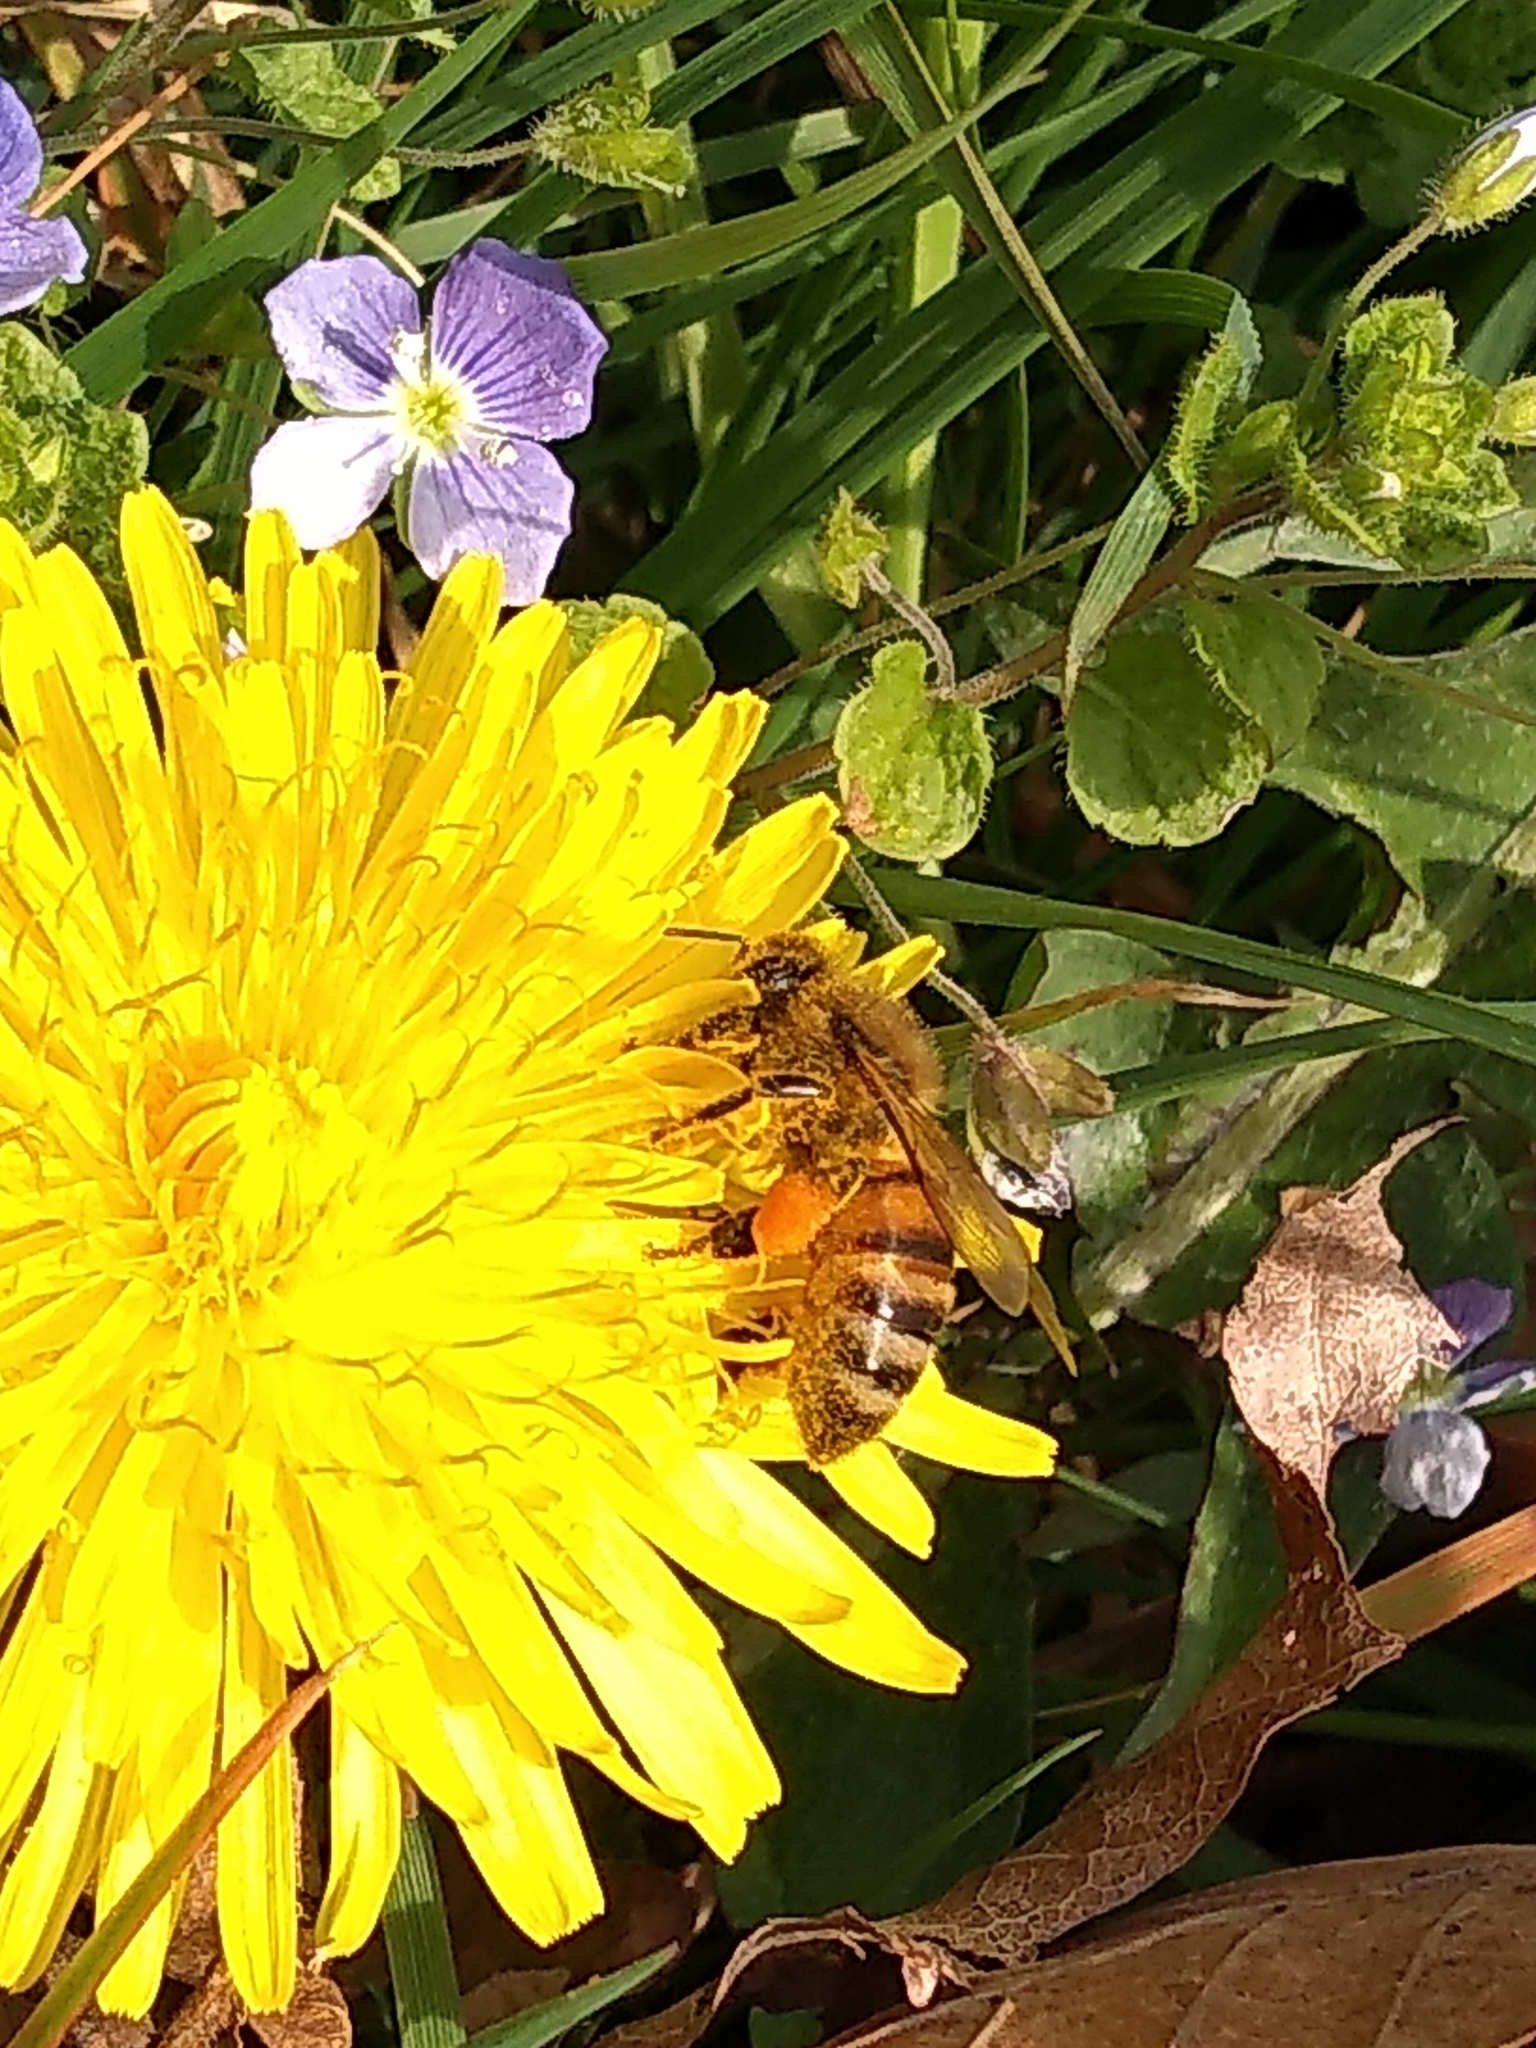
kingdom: Animalia
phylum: Arthropoda
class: Insecta
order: Hymenoptera
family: Apidae
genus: Apis
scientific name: Apis mellifera
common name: Honey bee
